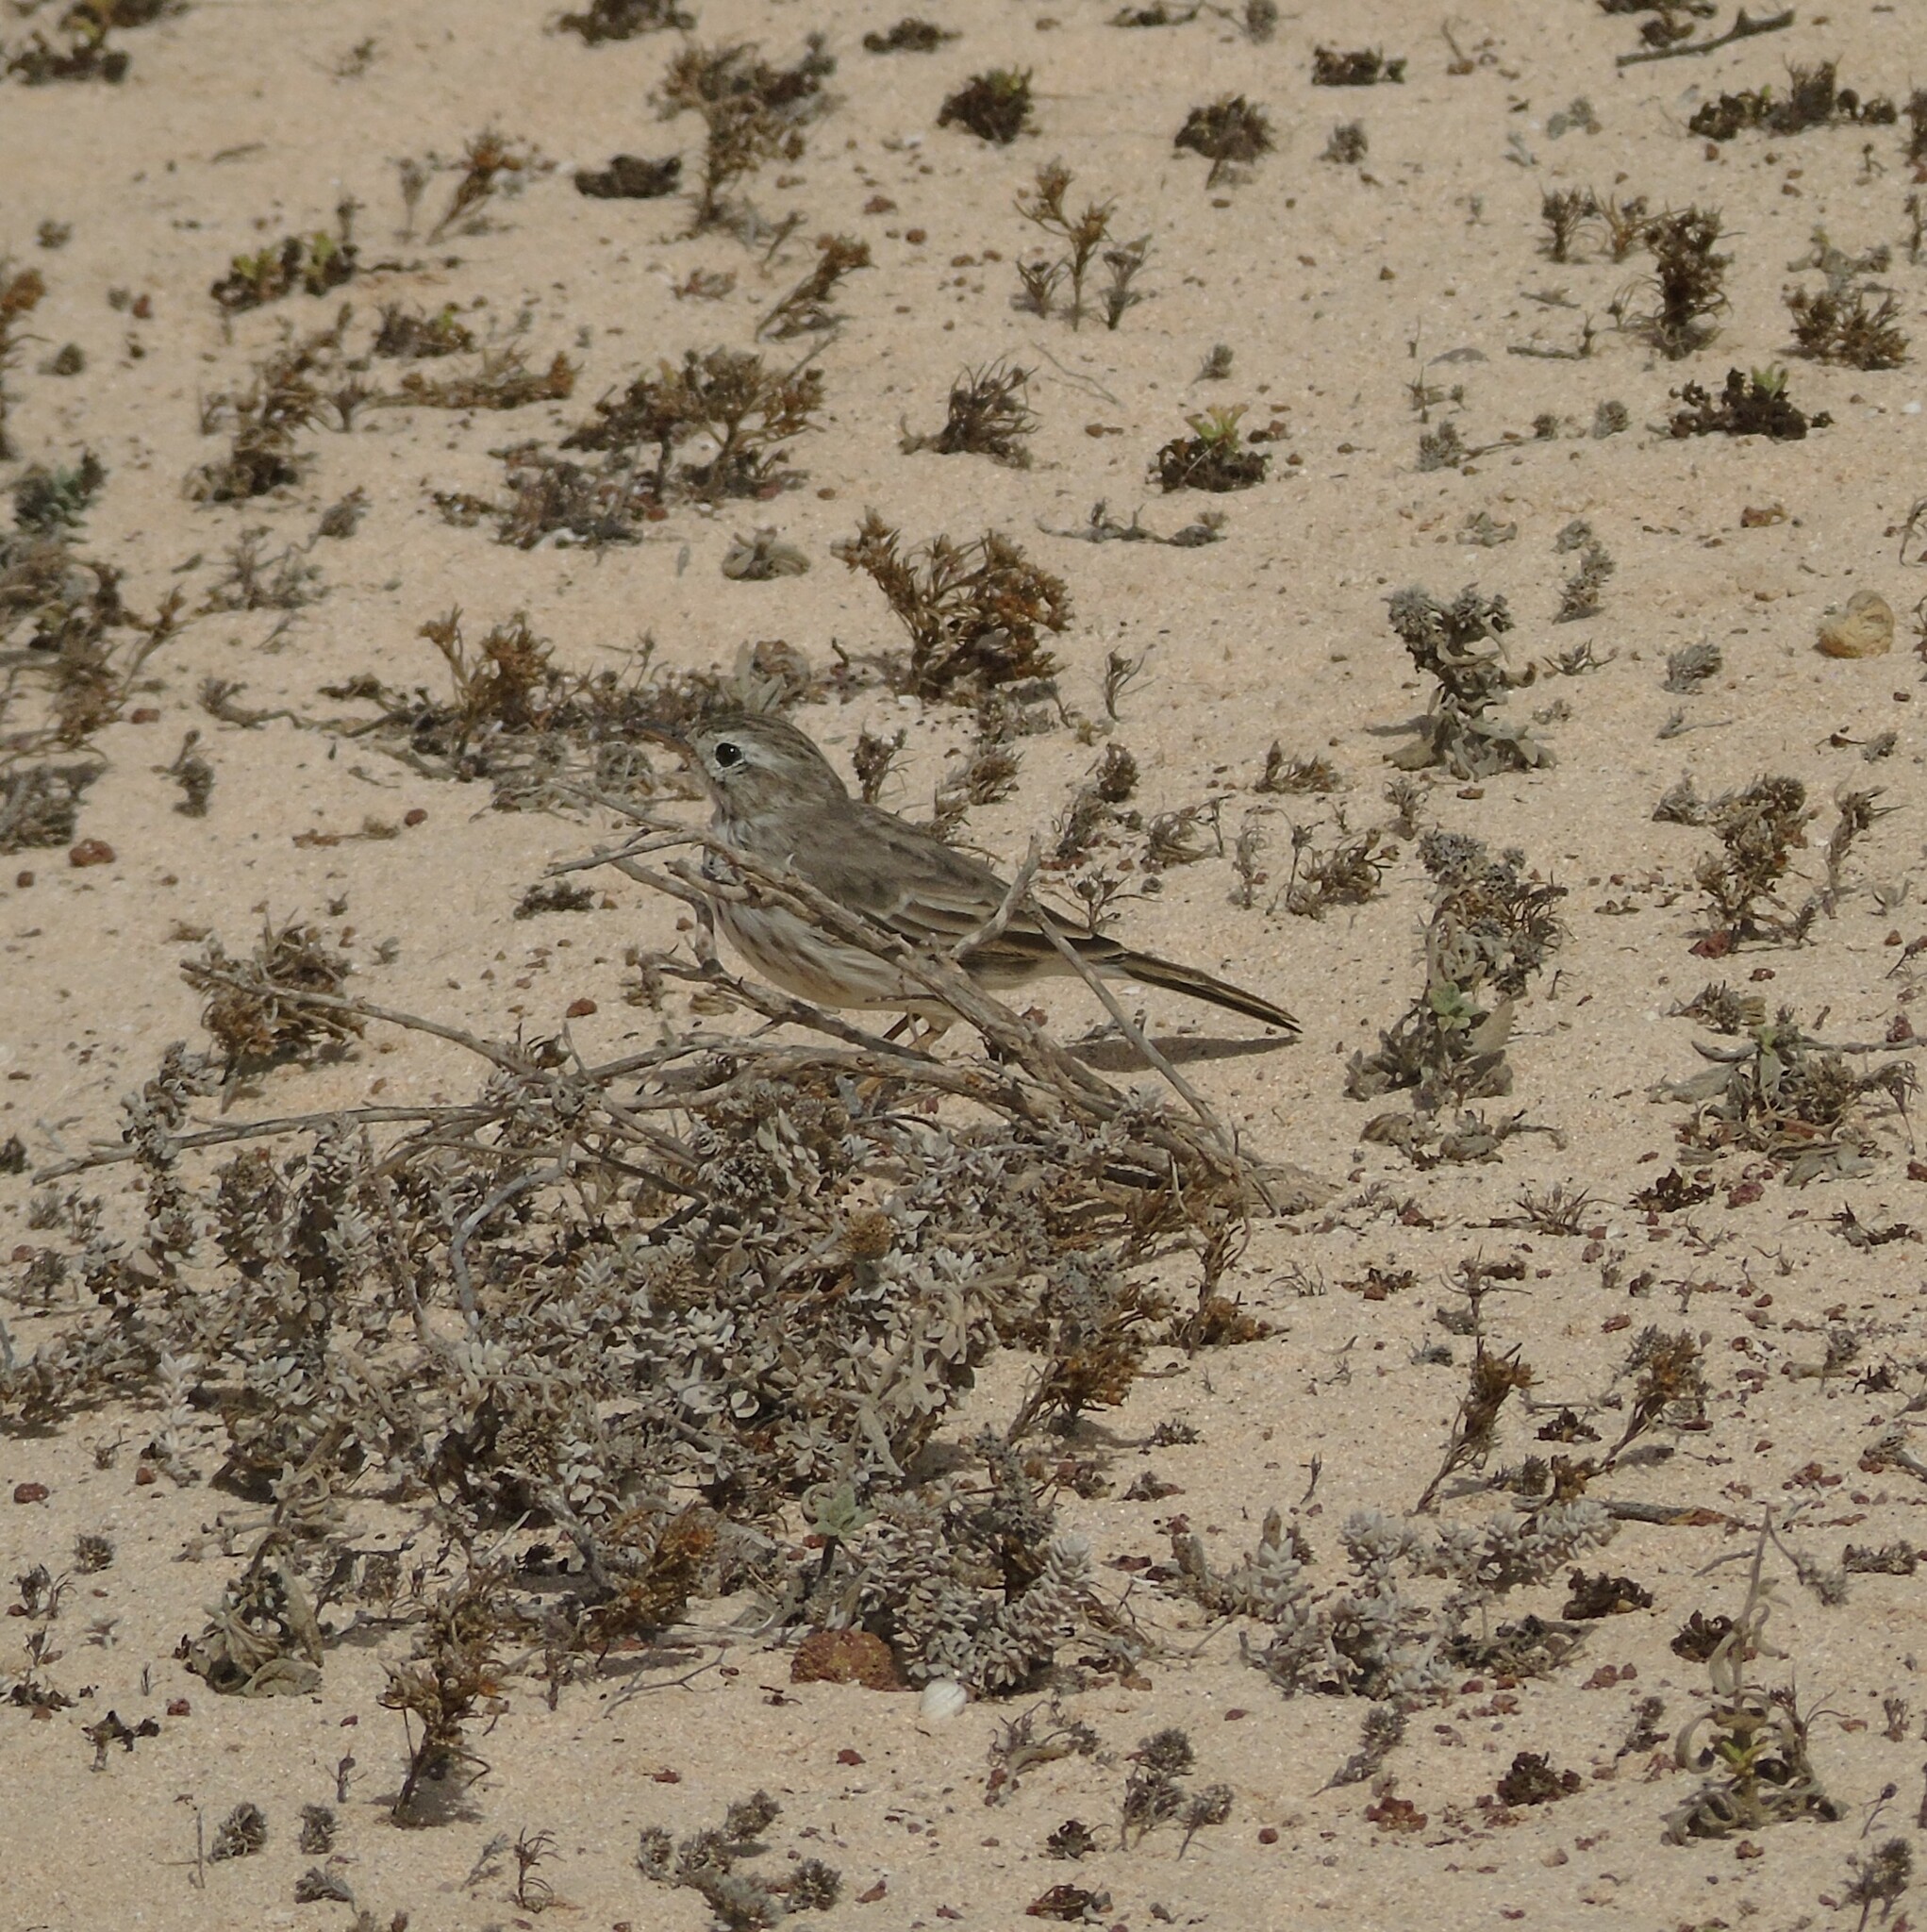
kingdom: Animalia
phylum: Chordata
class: Aves
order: Passeriformes
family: Motacillidae
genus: Anthus
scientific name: Anthus berthelotii
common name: Berthelot's pipit
